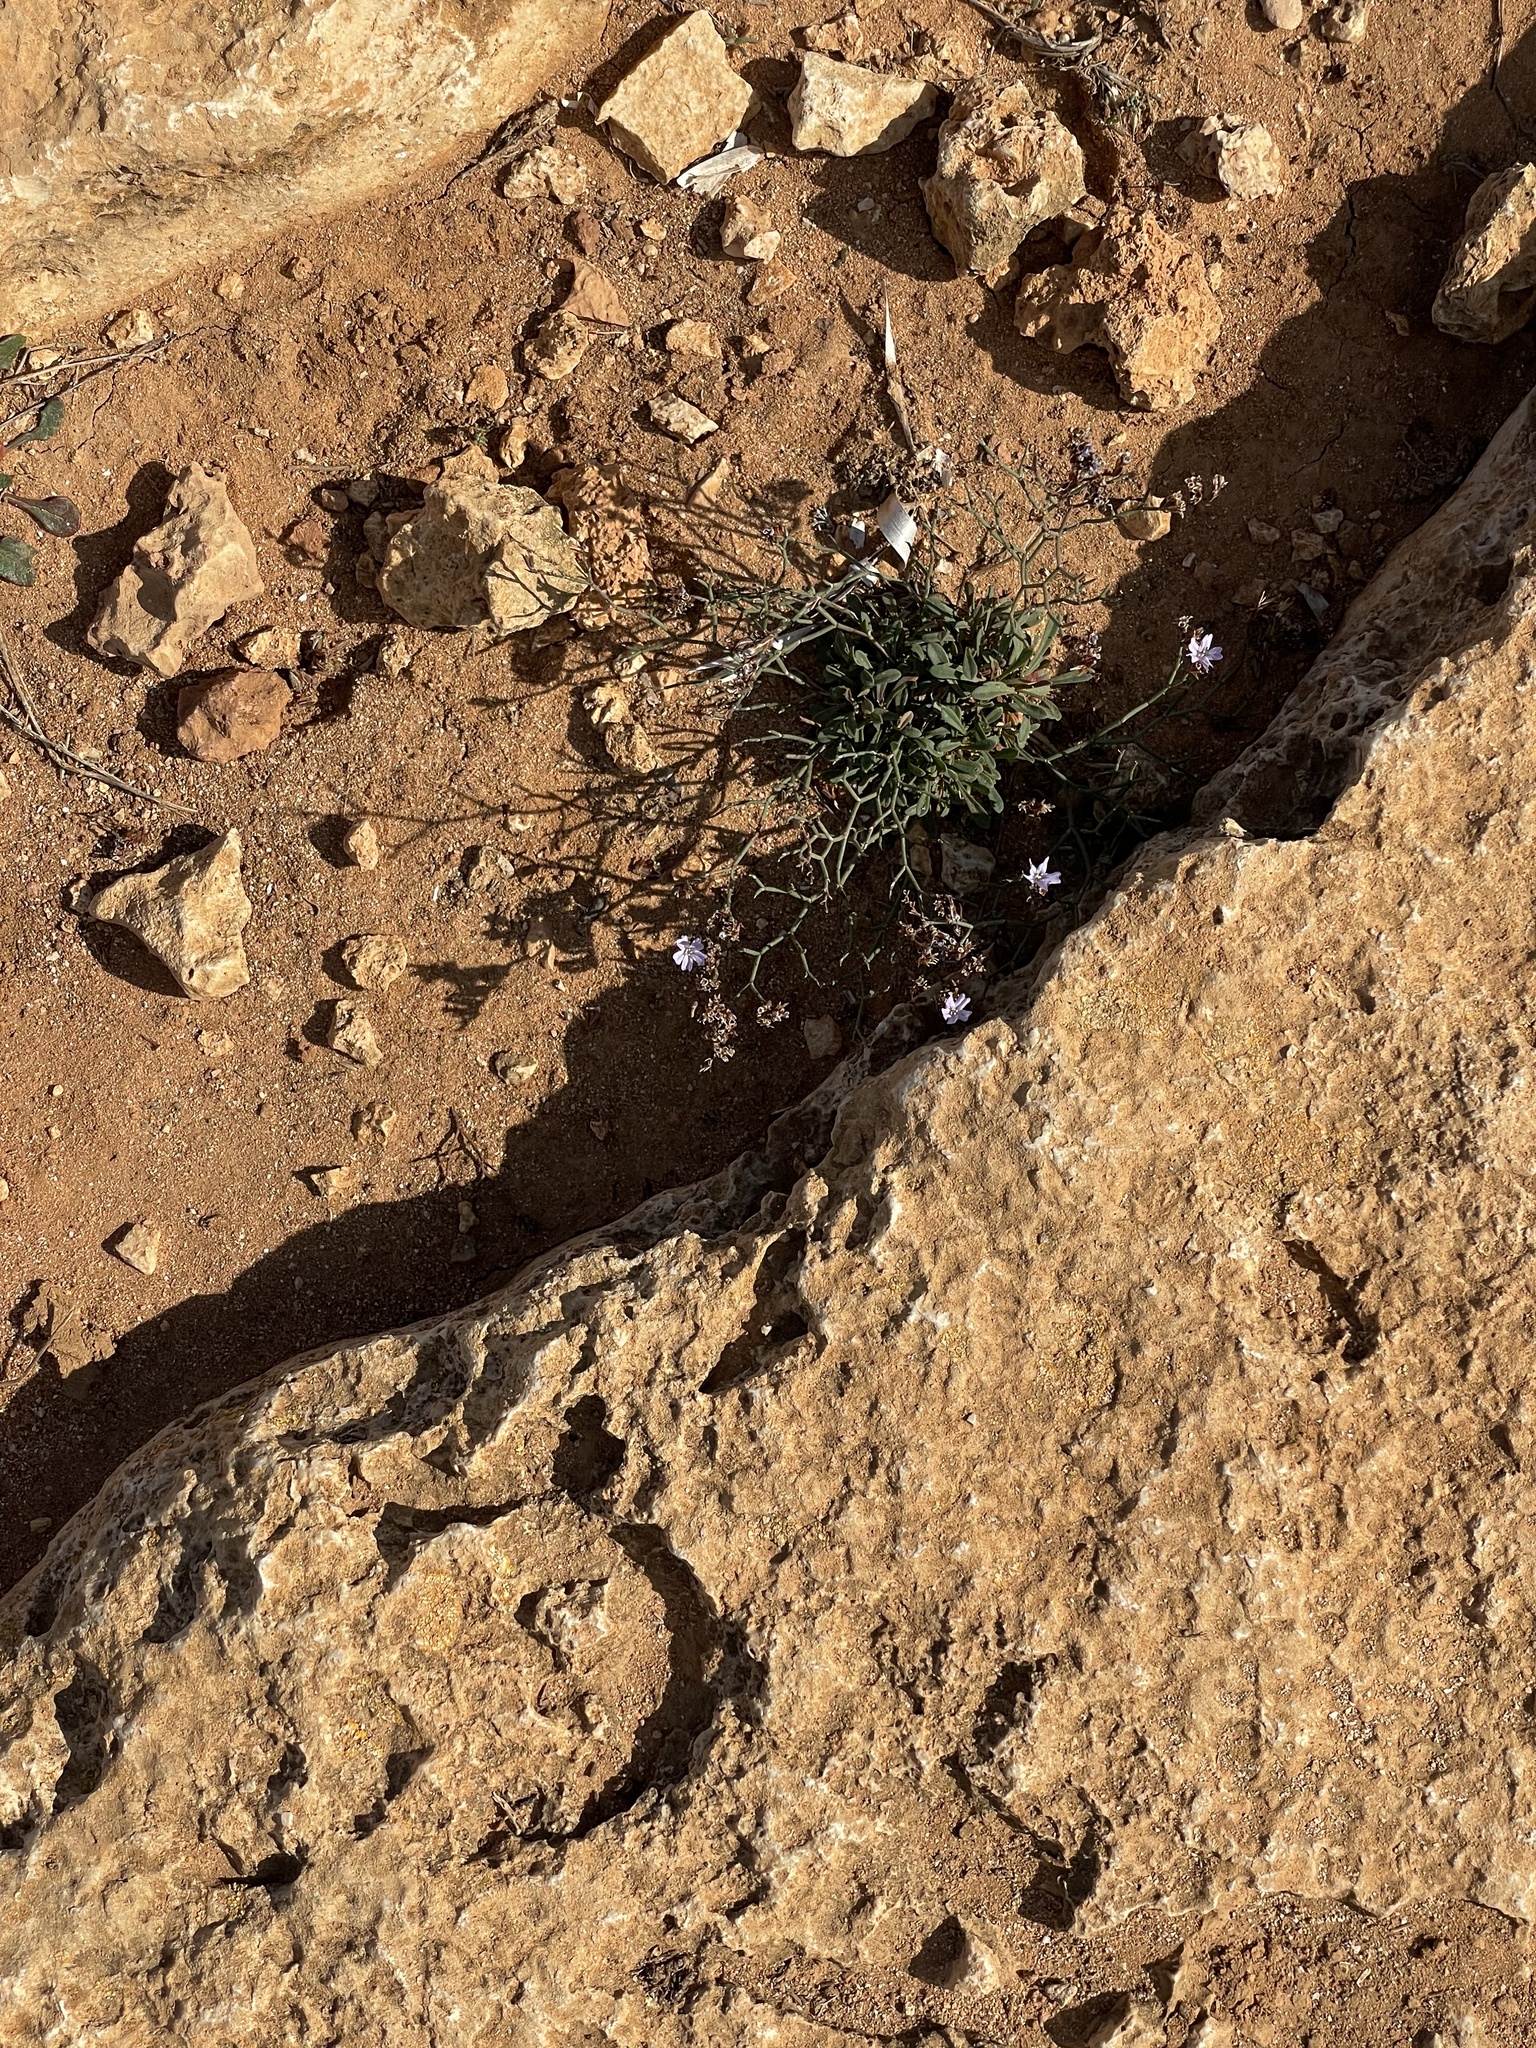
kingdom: Plantae
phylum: Tracheophyta
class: Magnoliopsida
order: Caryophyllales
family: Plumbaginaceae
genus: Limonium
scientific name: Limonium virgatum
